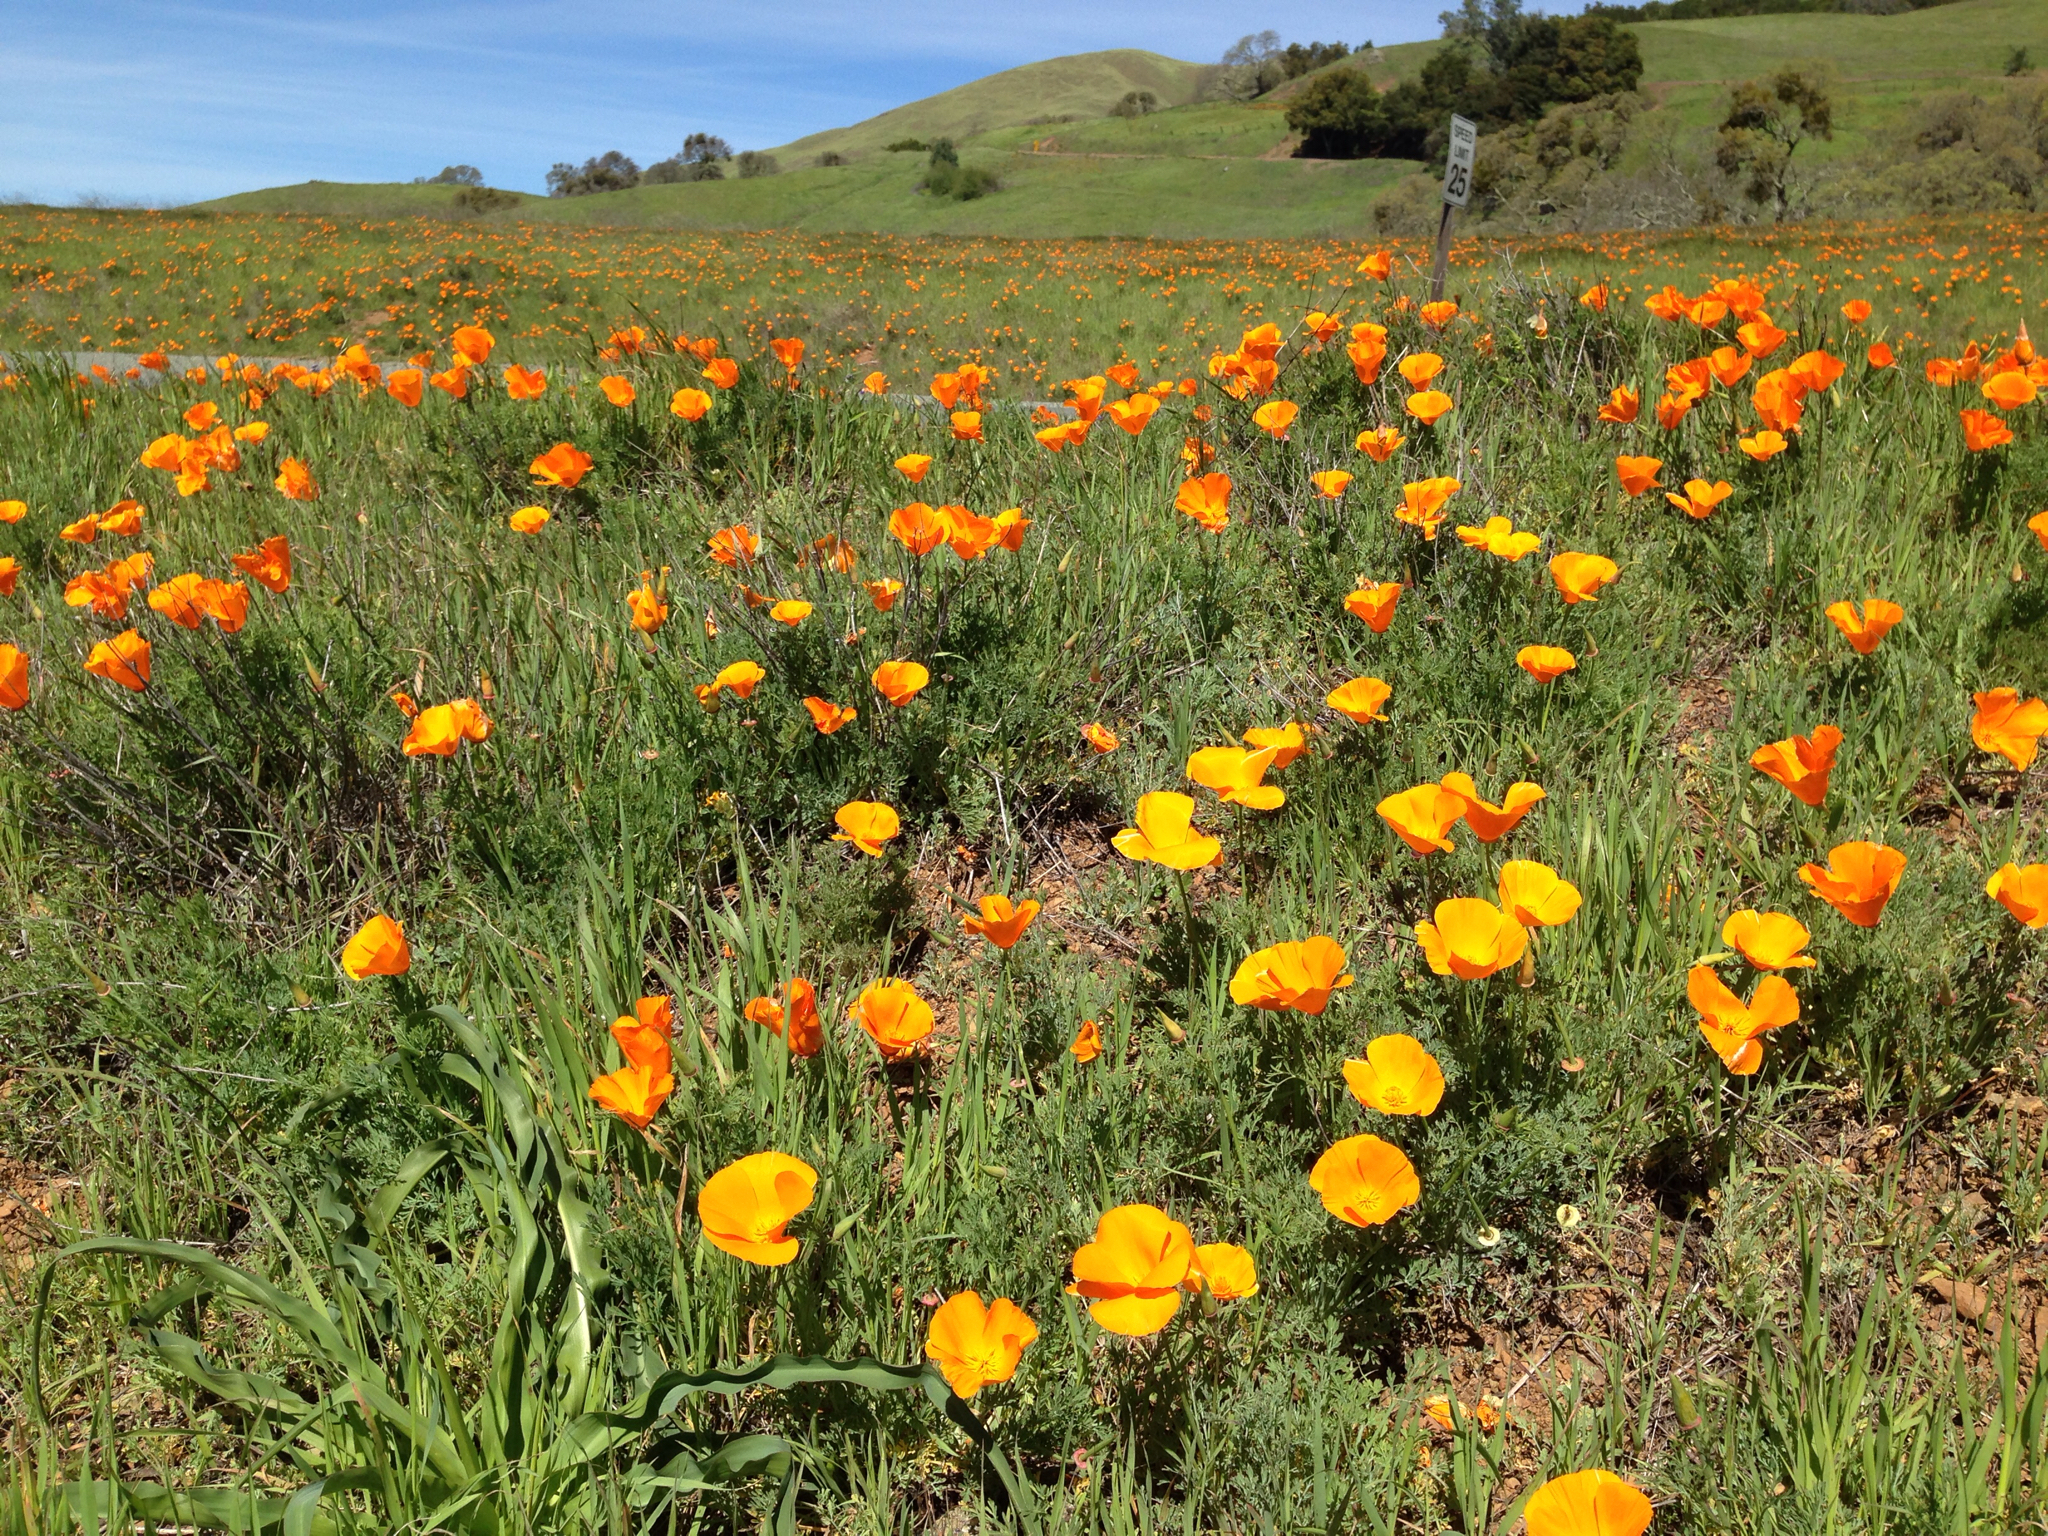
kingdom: Plantae
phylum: Tracheophyta
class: Magnoliopsida
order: Ranunculales
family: Papaveraceae
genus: Eschscholzia
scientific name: Eschscholzia californica
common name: California poppy
